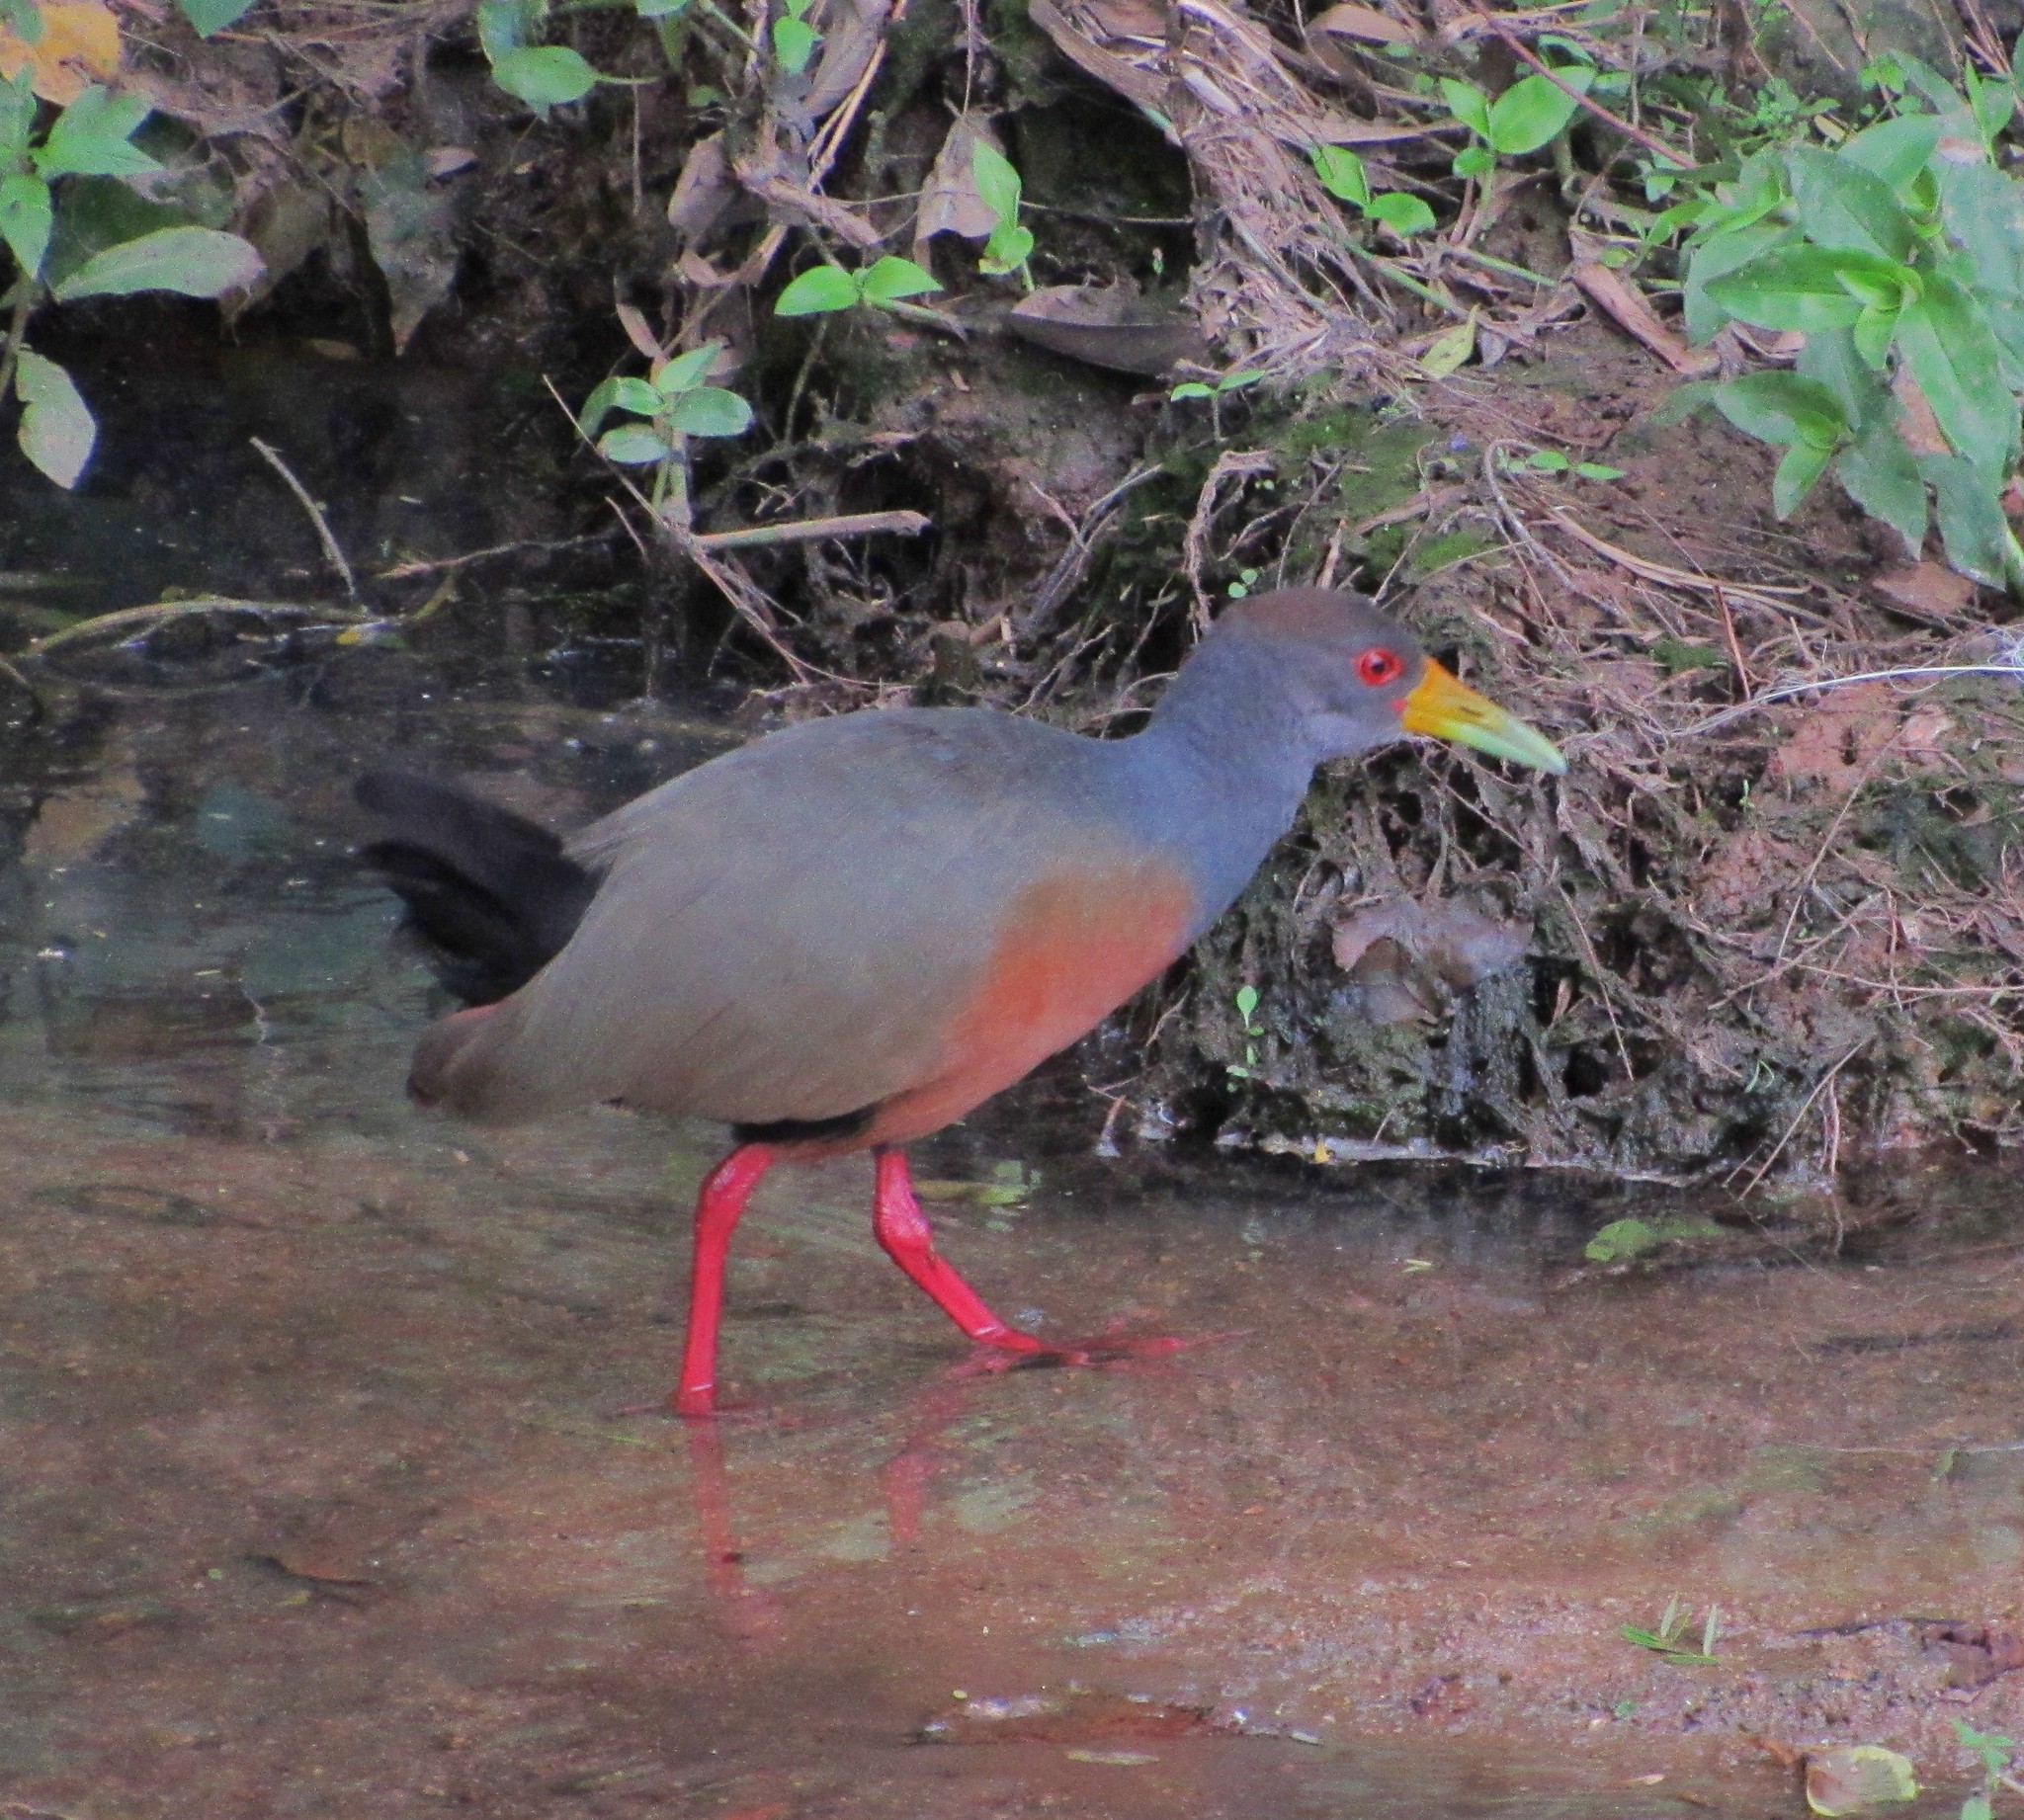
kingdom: Animalia
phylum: Chordata
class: Aves
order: Gruiformes
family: Rallidae
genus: Aramides
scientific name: Aramides cajanea
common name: Gray-necked wood-rail
